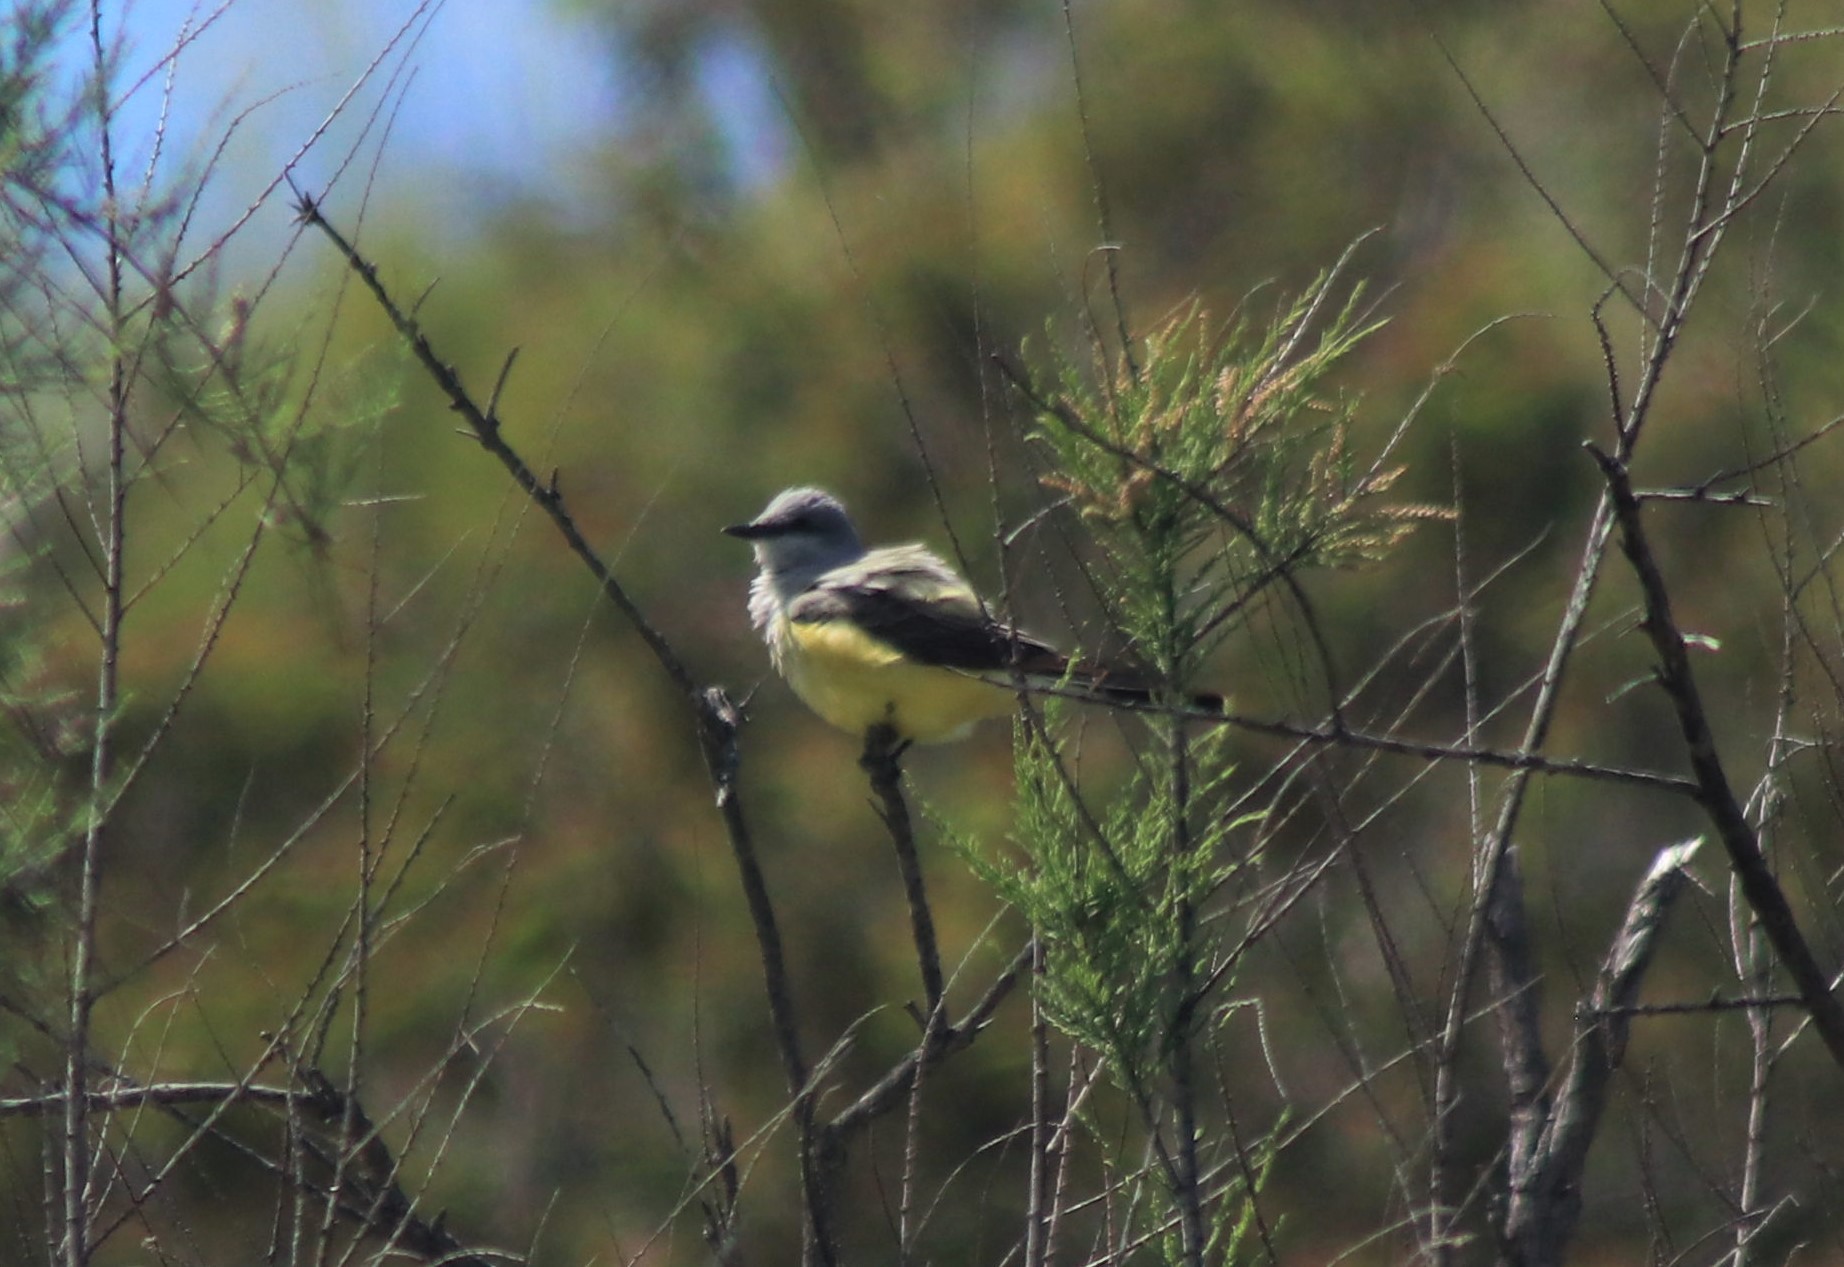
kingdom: Animalia
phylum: Chordata
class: Aves
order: Passeriformes
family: Tyrannidae
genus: Tyrannus
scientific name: Tyrannus verticalis
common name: Western kingbird
